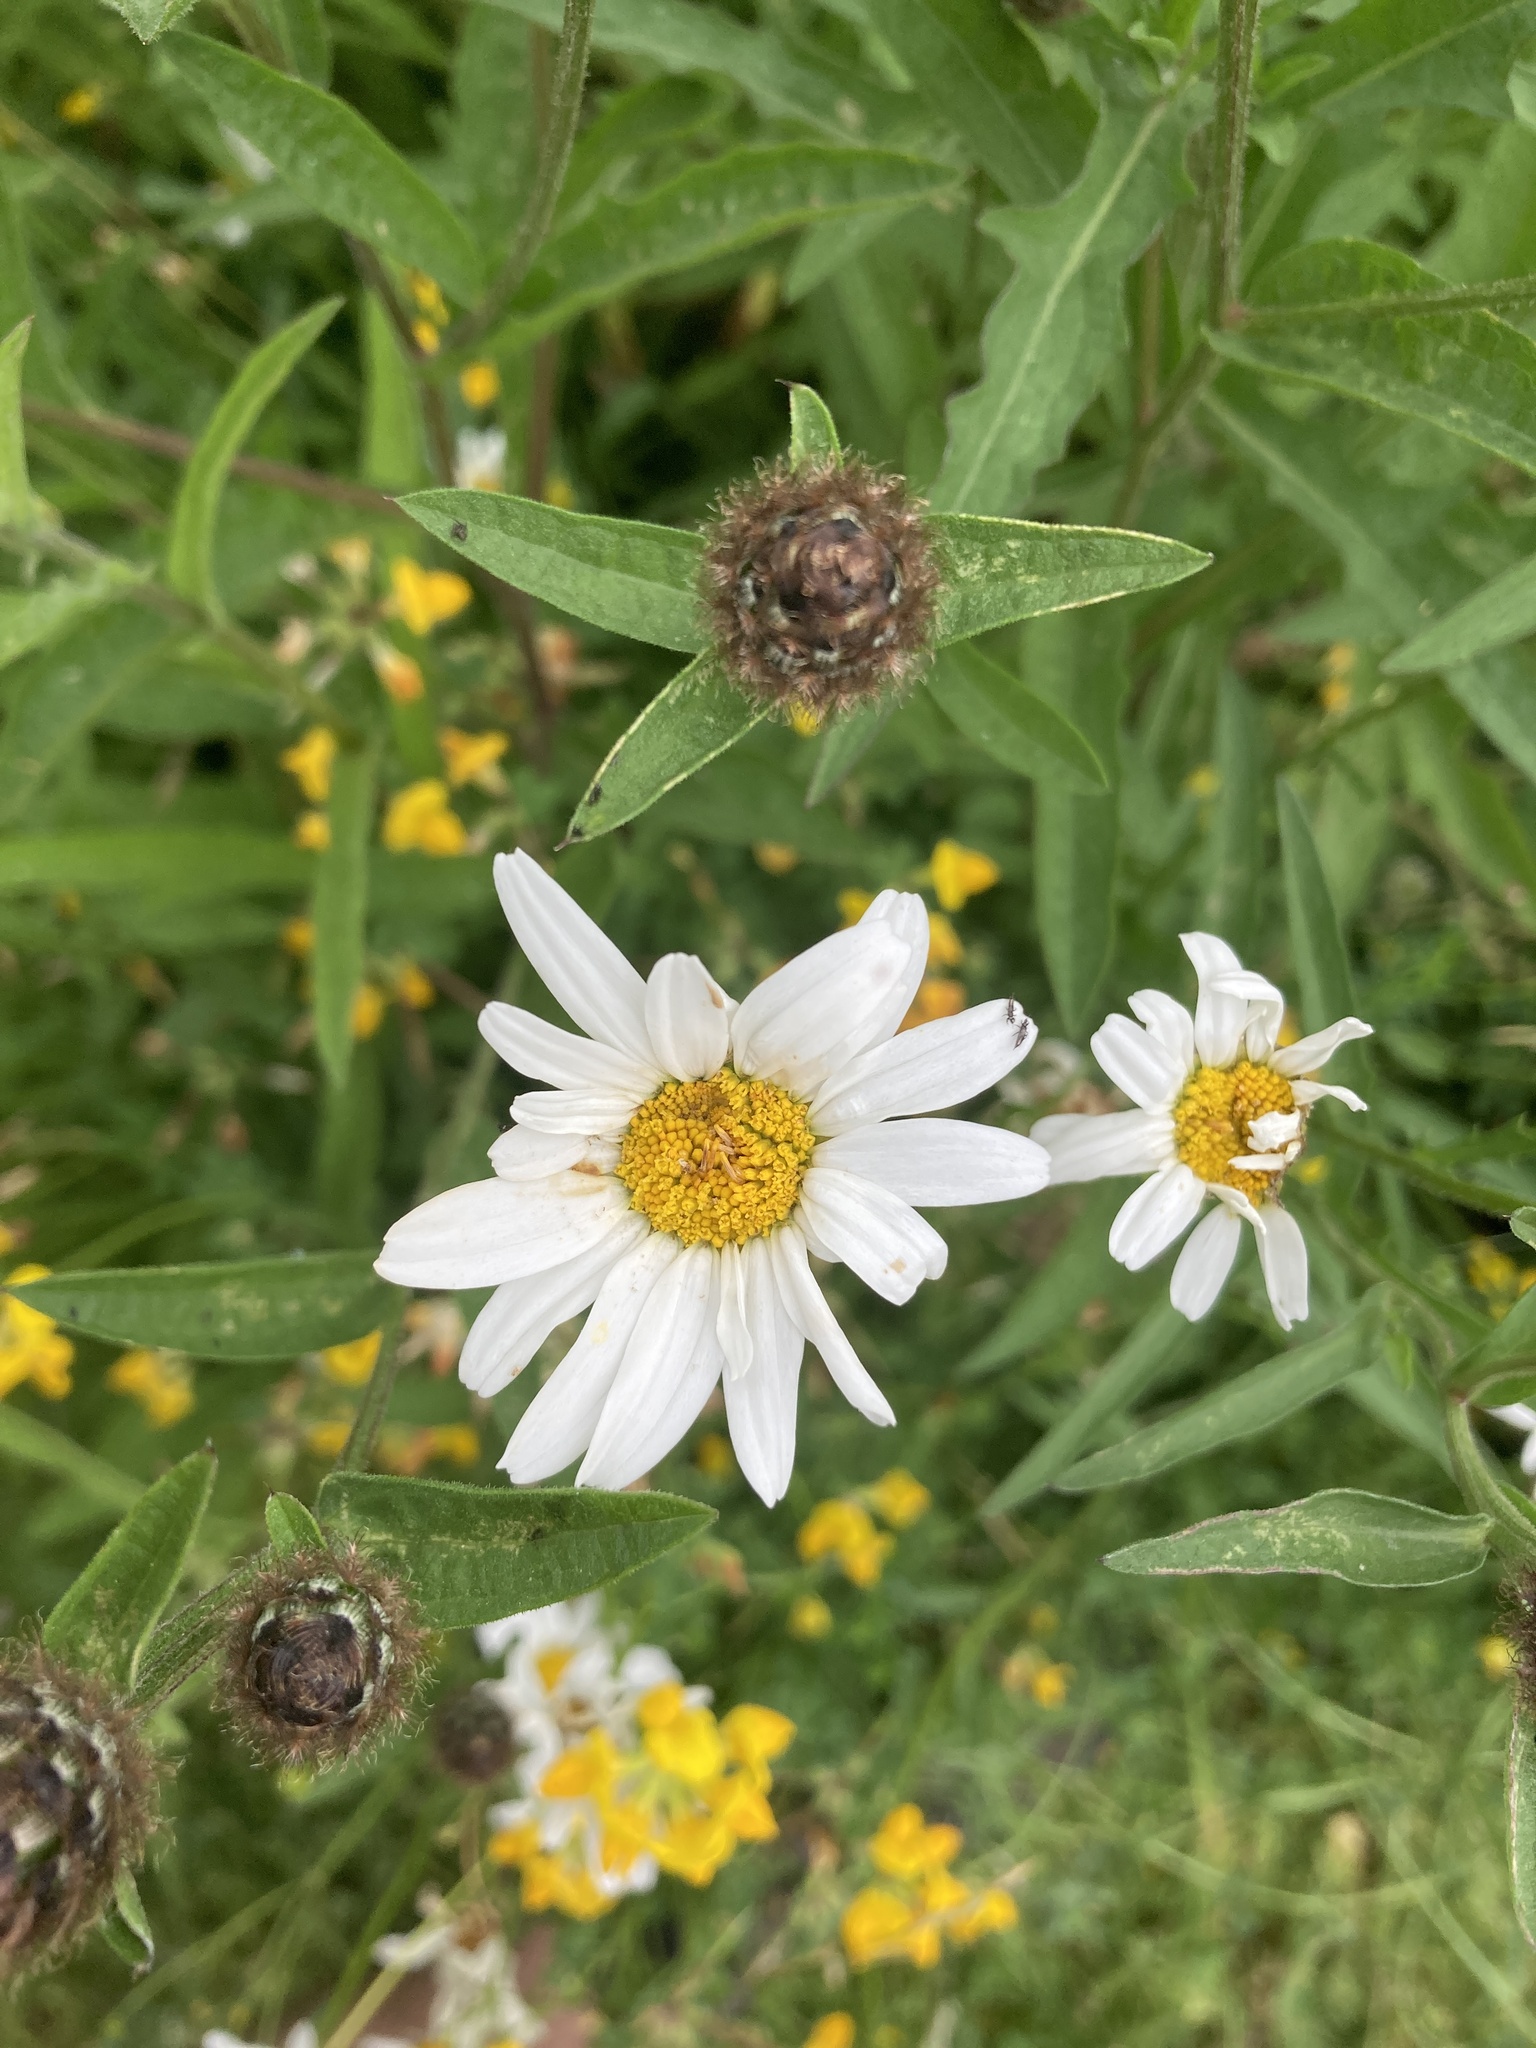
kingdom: Plantae
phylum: Tracheophyta
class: Magnoliopsida
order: Asterales
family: Asteraceae
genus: Leucanthemum
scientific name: Leucanthemum vulgare
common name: Oxeye daisy
